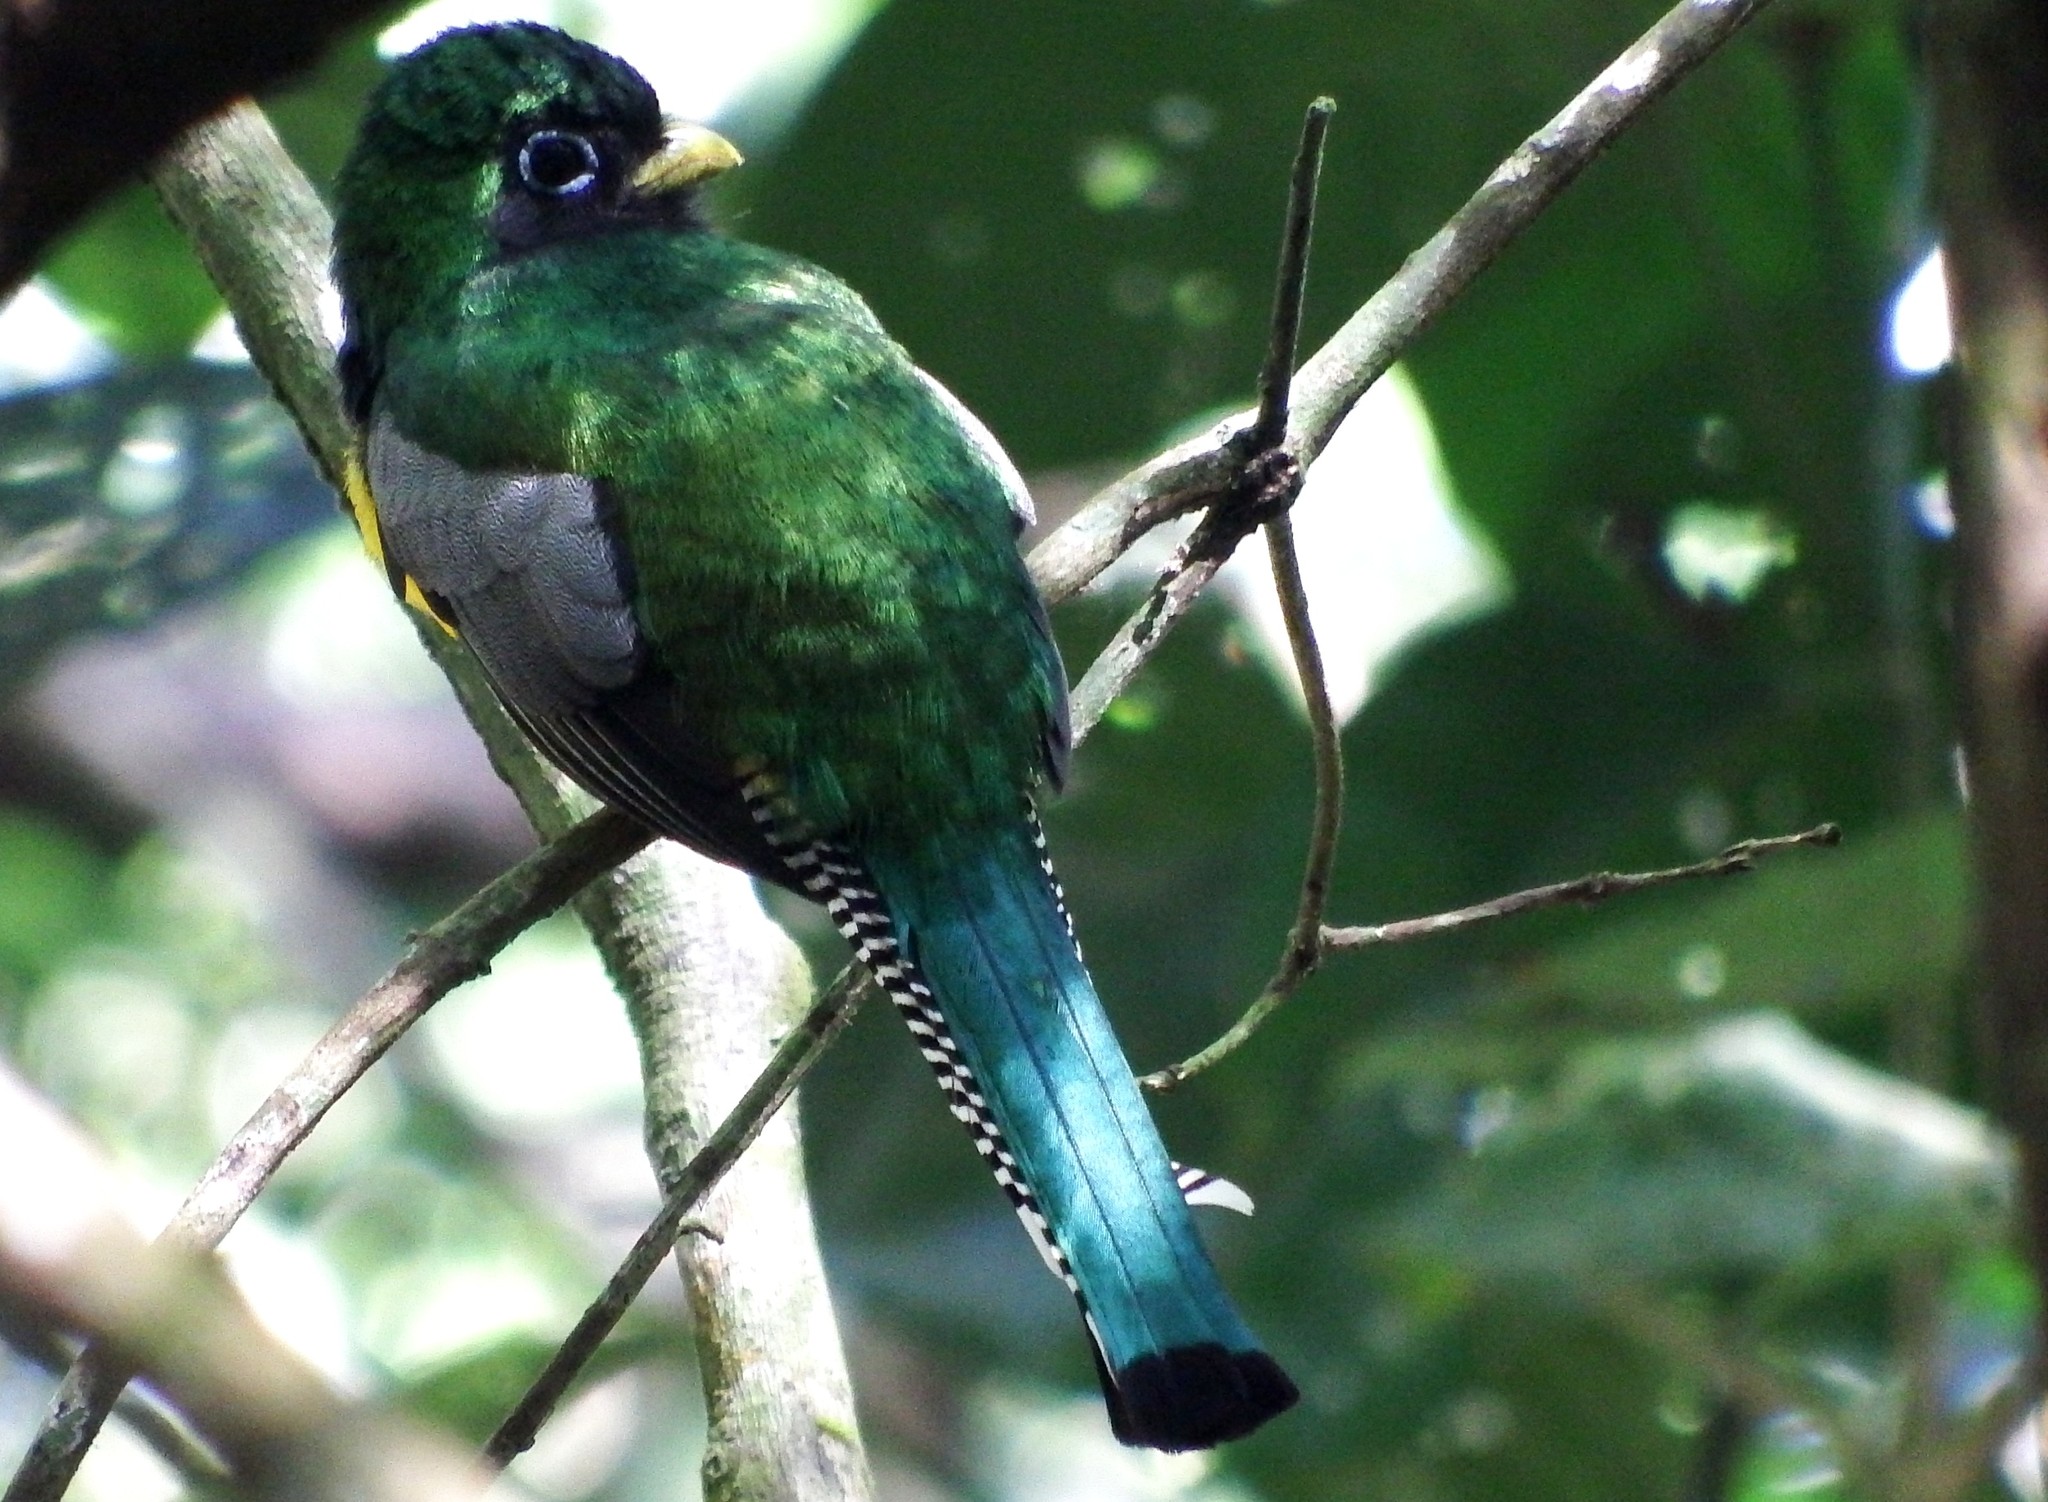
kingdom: Animalia
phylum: Chordata
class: Aves
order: Trogoniformes
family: Trogonidae
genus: Trogon
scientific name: Trogon rufus
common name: Black-throated trogon
